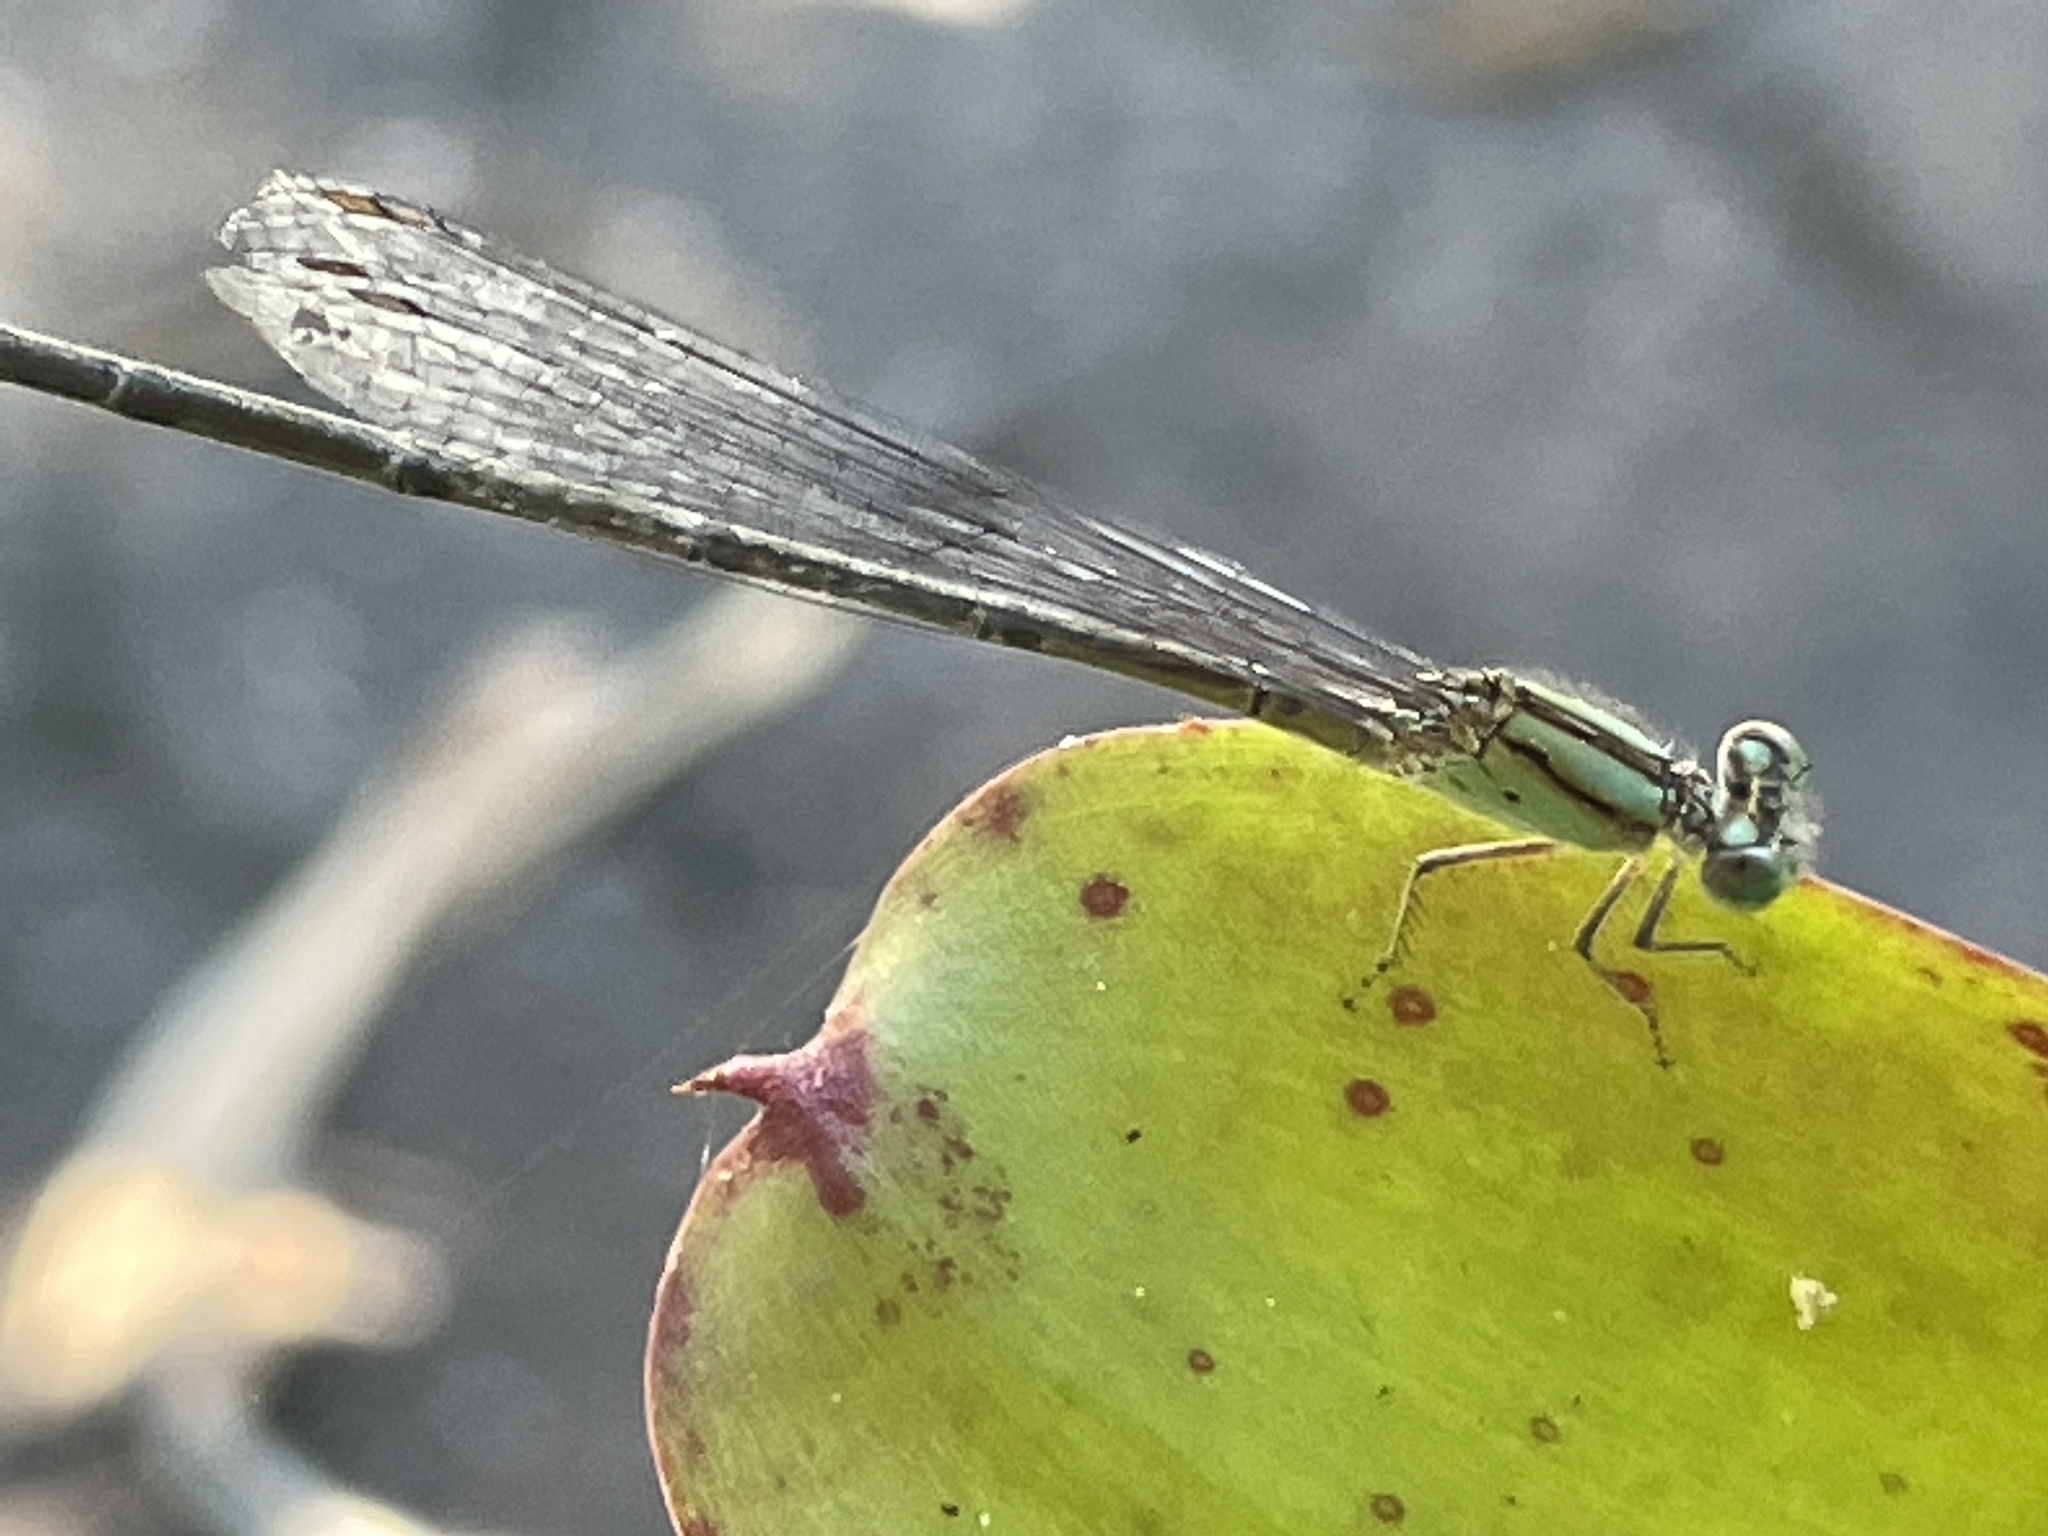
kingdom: Animalia
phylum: Arthropoda
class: Insecta
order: Odonata
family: Coenagrionidae
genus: Pseudagrion
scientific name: Pseudagrion microcephalum
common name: Blue riverdamsel
